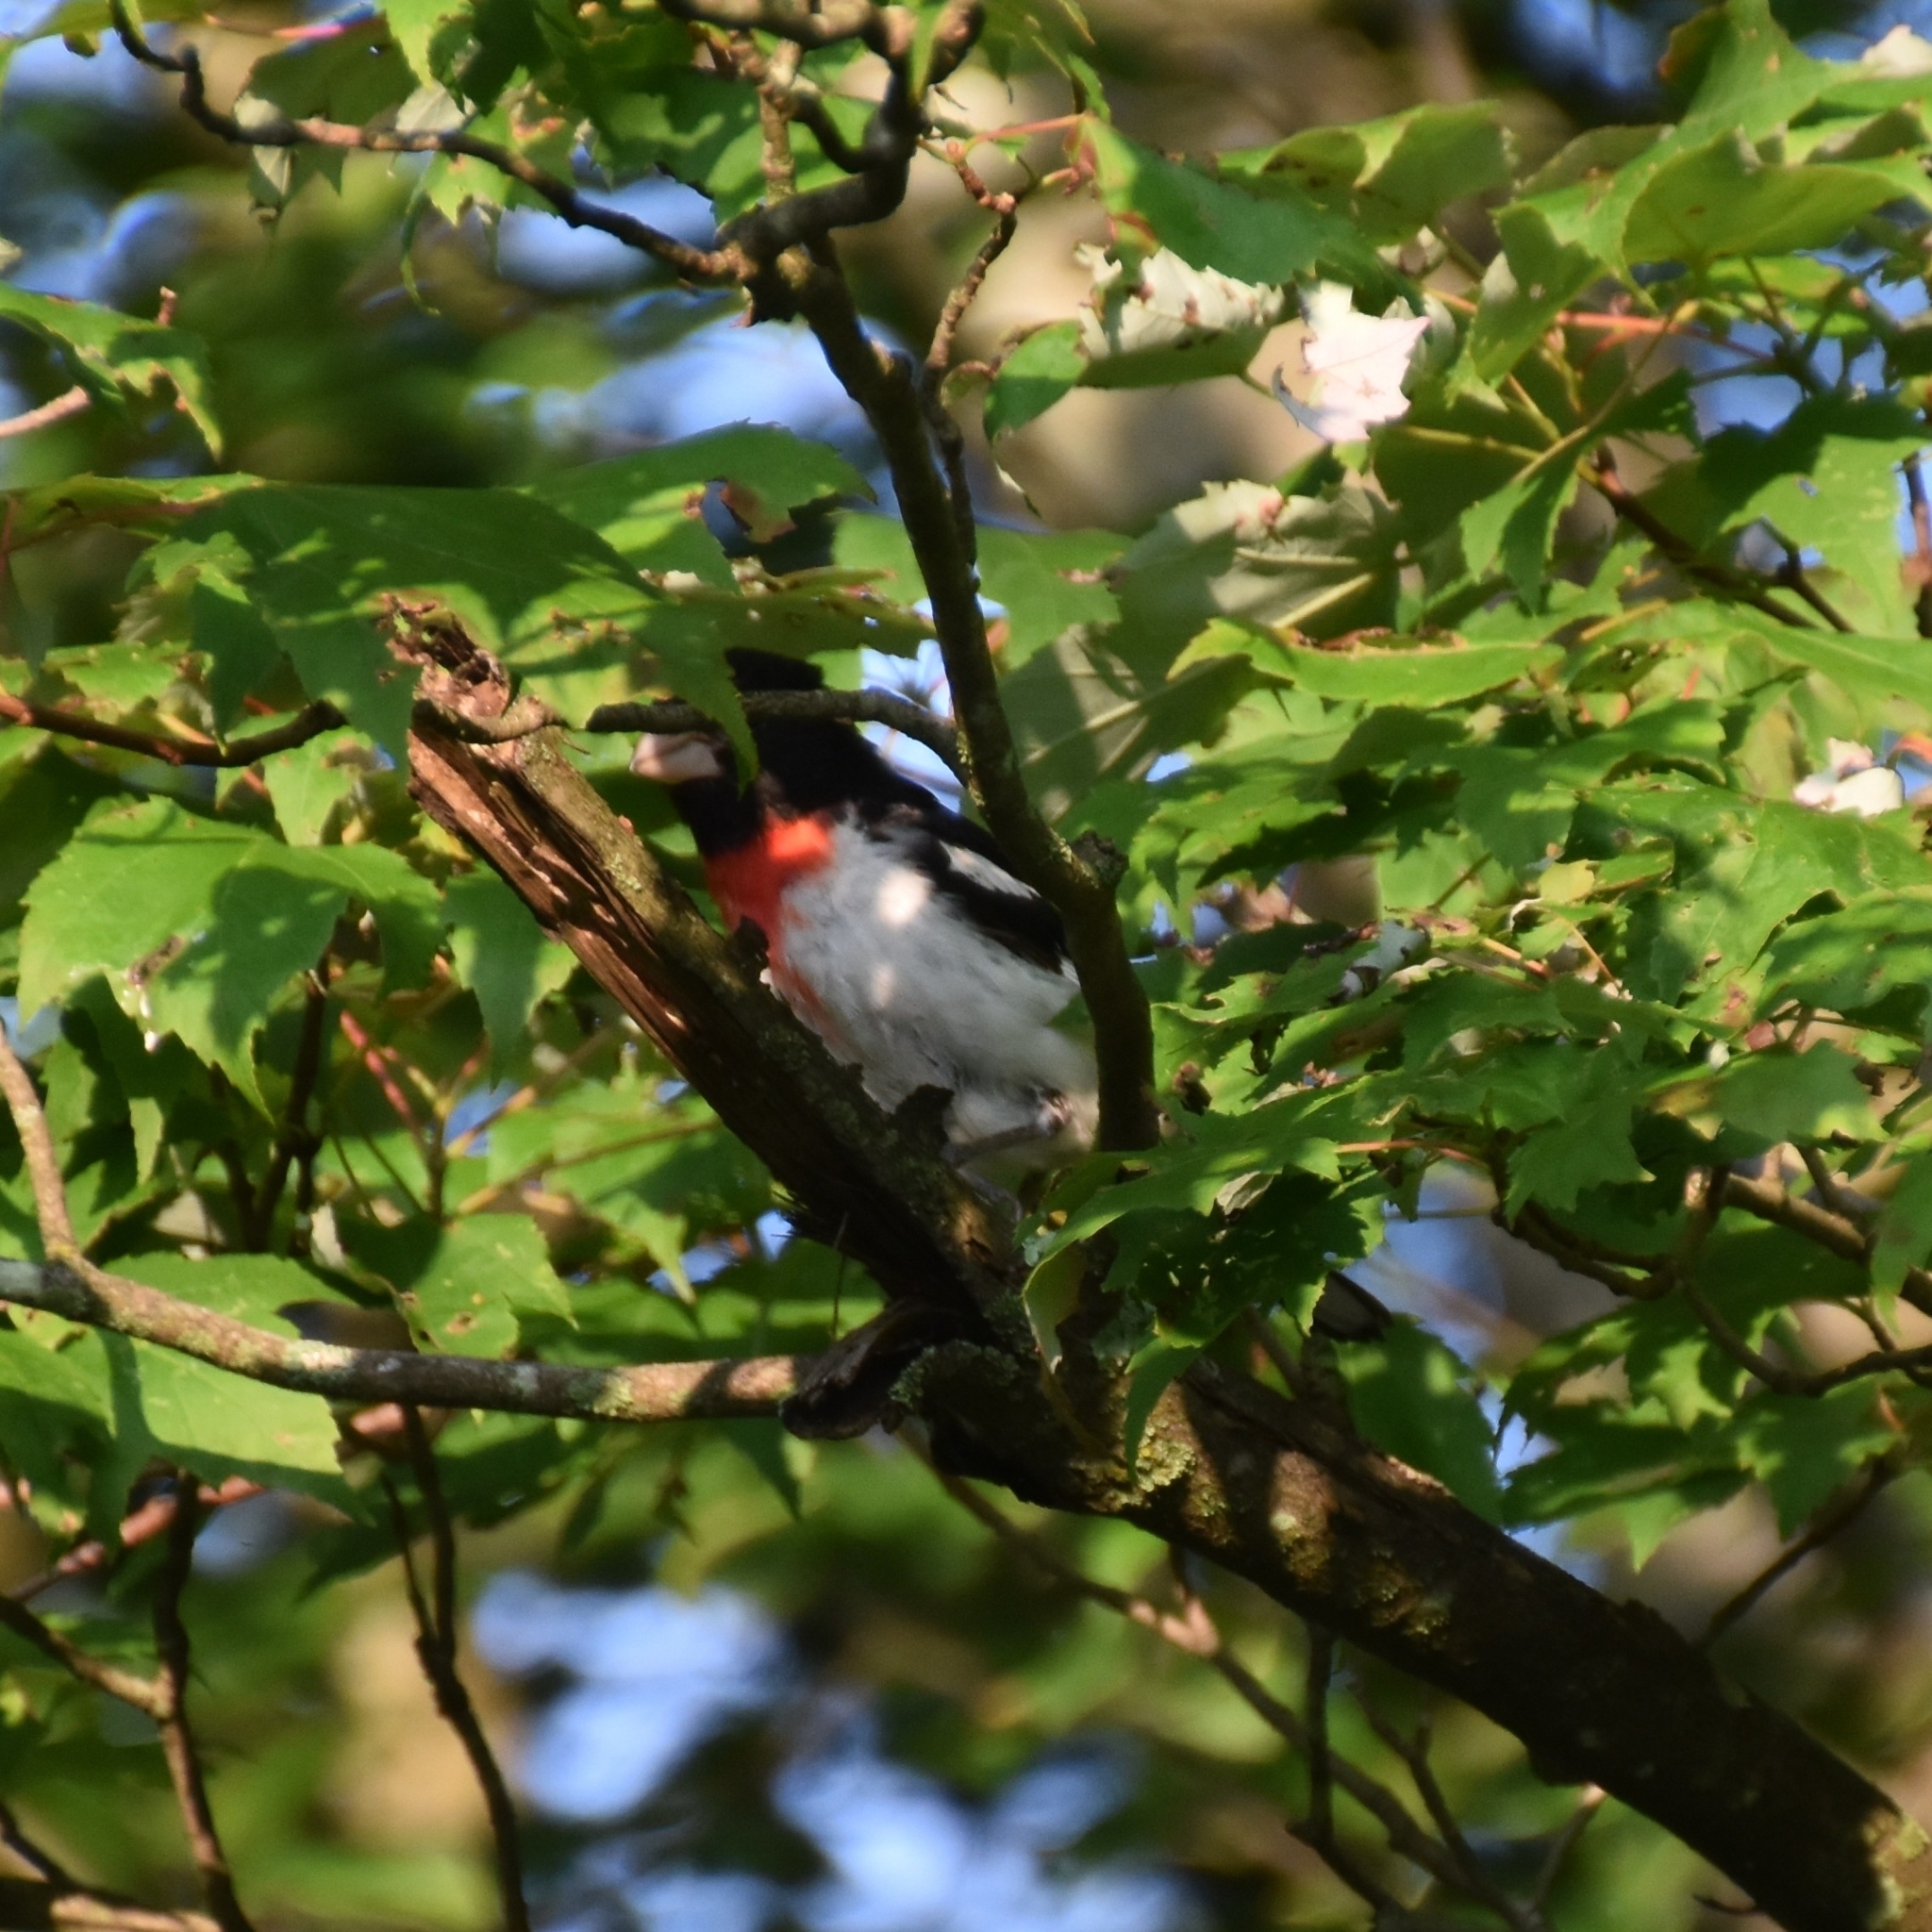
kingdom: Animalia
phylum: Chordata
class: Aves
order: Passeriformes
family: Cardinalidae
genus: Pheucticus
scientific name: Pheucticus ludovicianus
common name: Rose-breasted grosbeak
